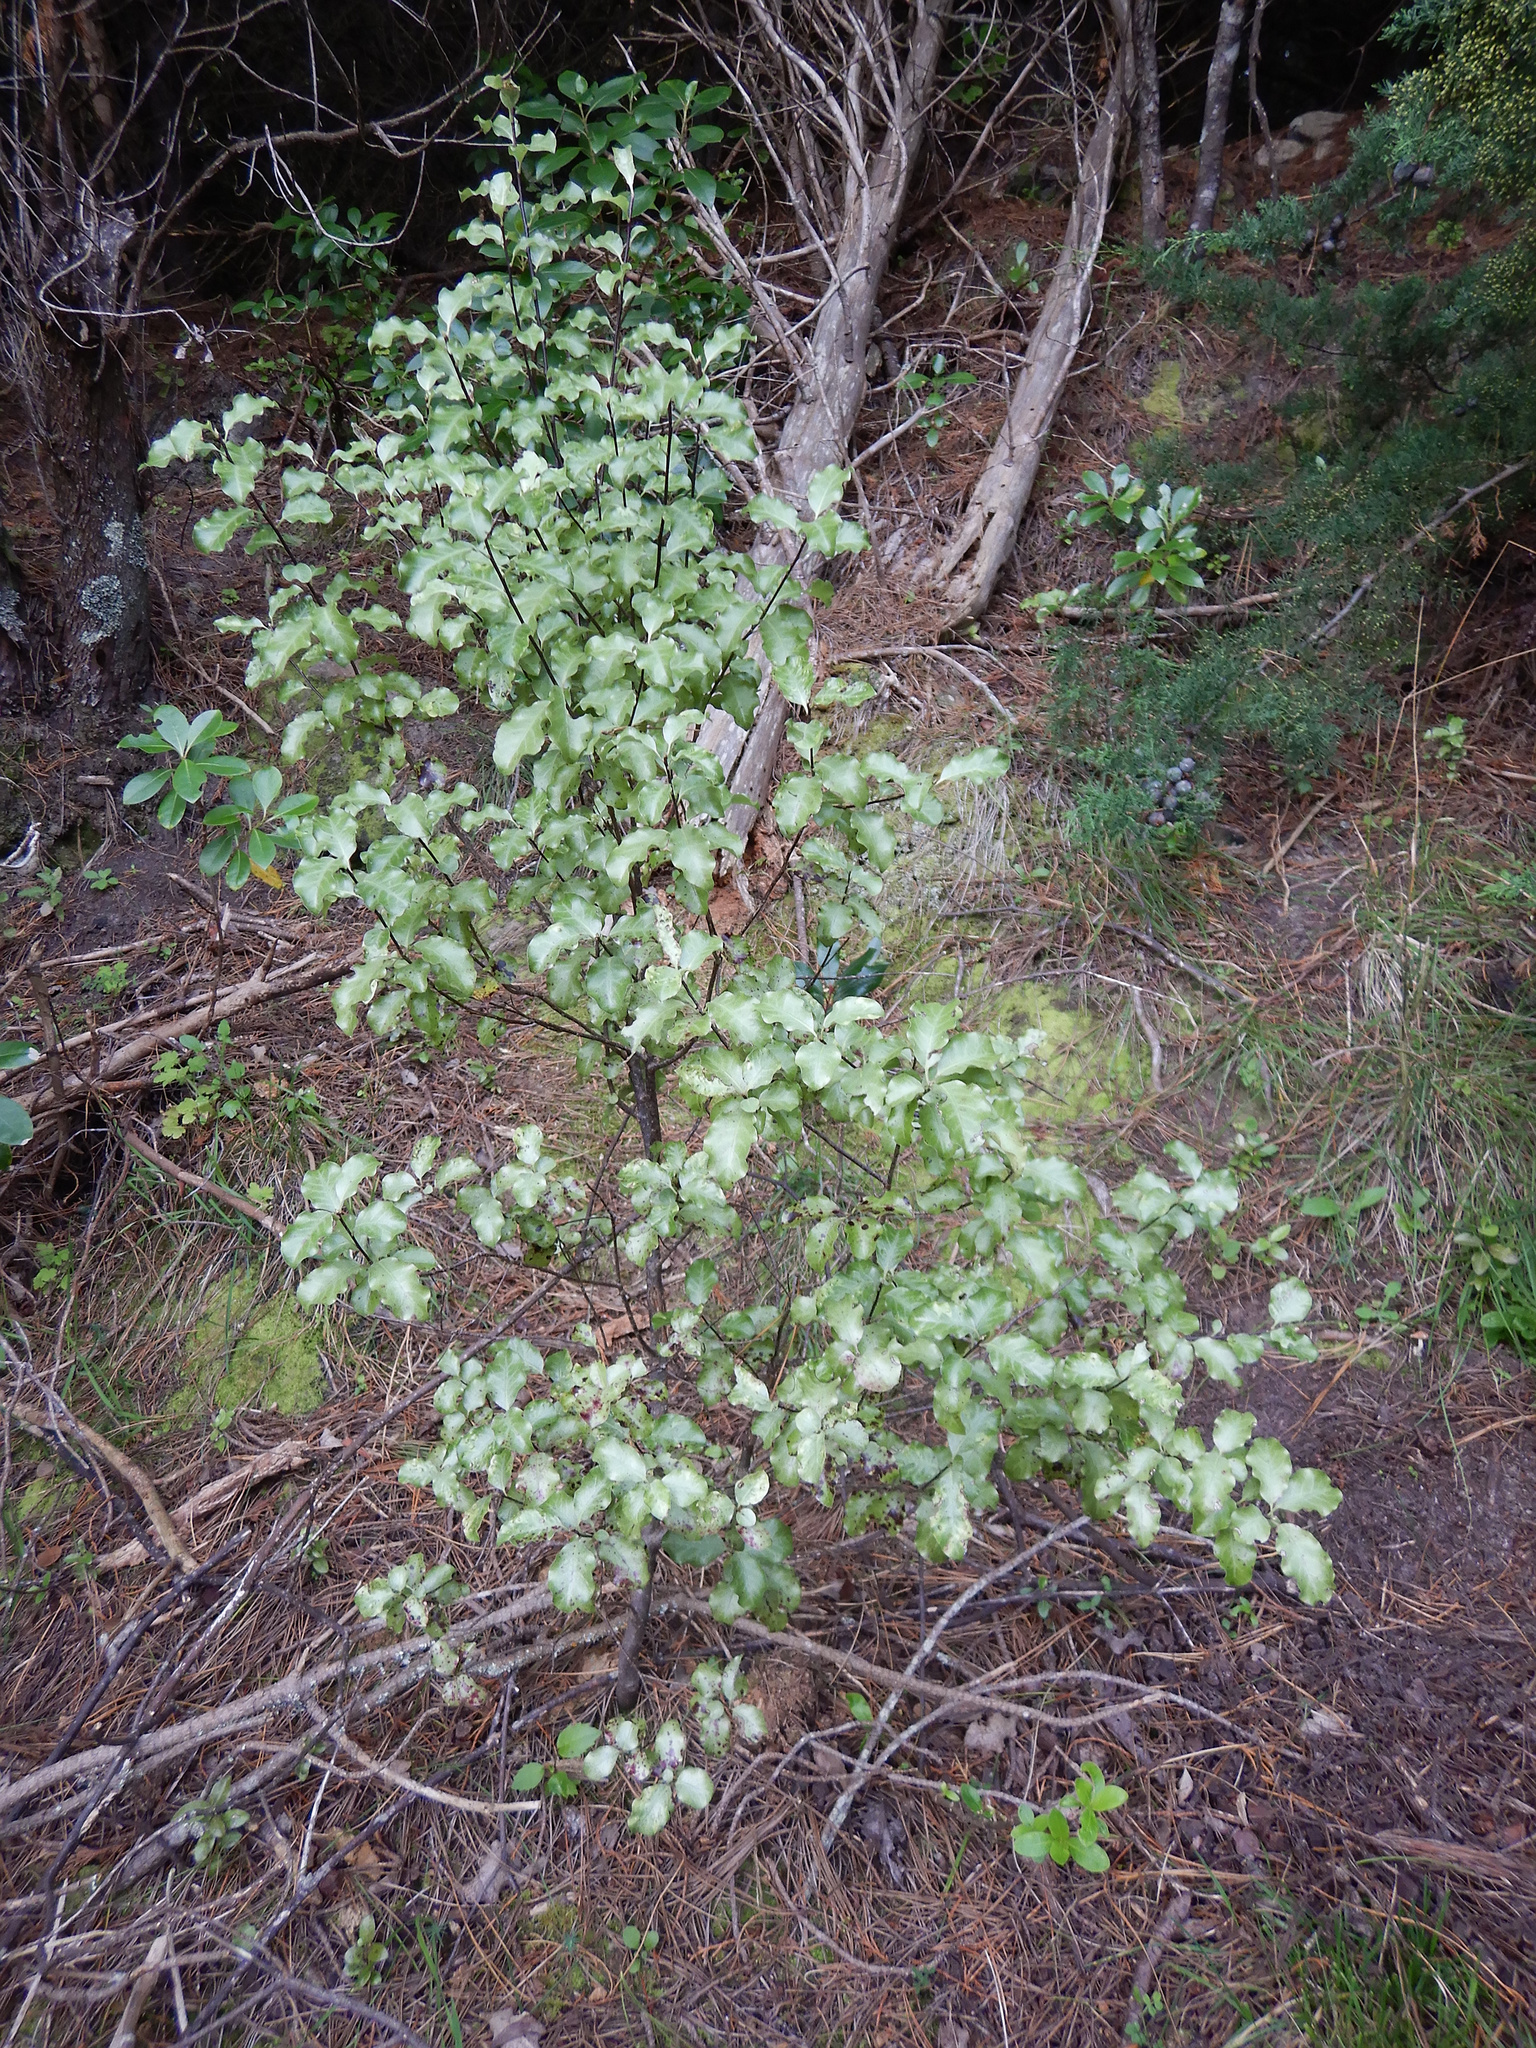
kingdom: Plantae
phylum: Tracheophyta
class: Magnoliopsida
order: Apiales
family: Pittosporaceae
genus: Pittosporum
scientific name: Pittosporum tenuifolium
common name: Kohuhu
